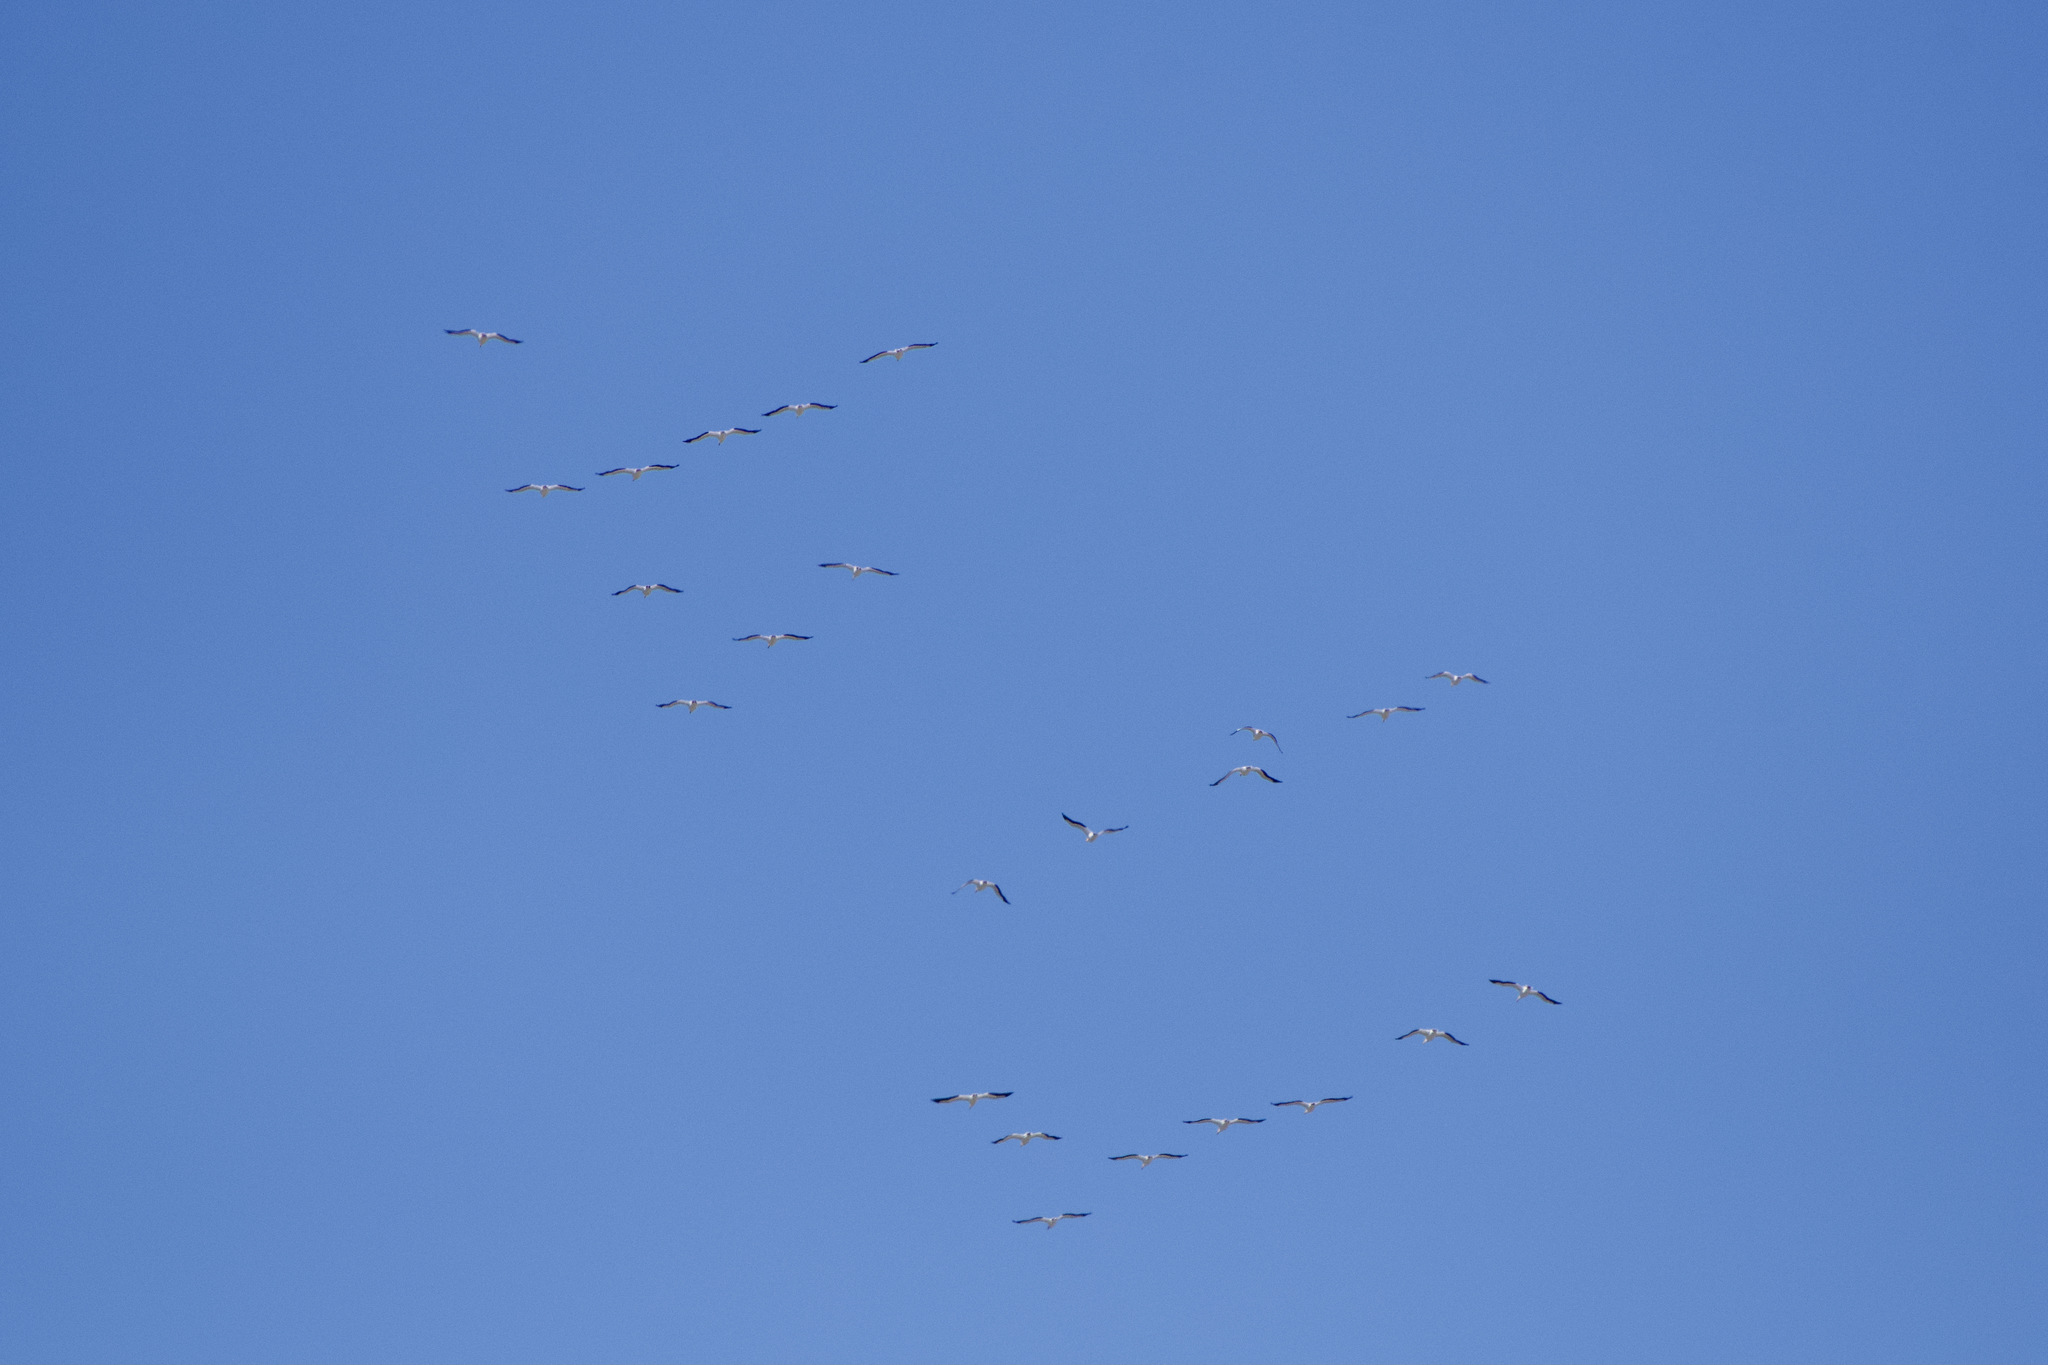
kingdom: Animalia
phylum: Chordata
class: Aves
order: Pelecaniformes
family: Pelecanidae
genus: Pelecanus
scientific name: Pelecanus erythrorhynchos
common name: American white pelican
